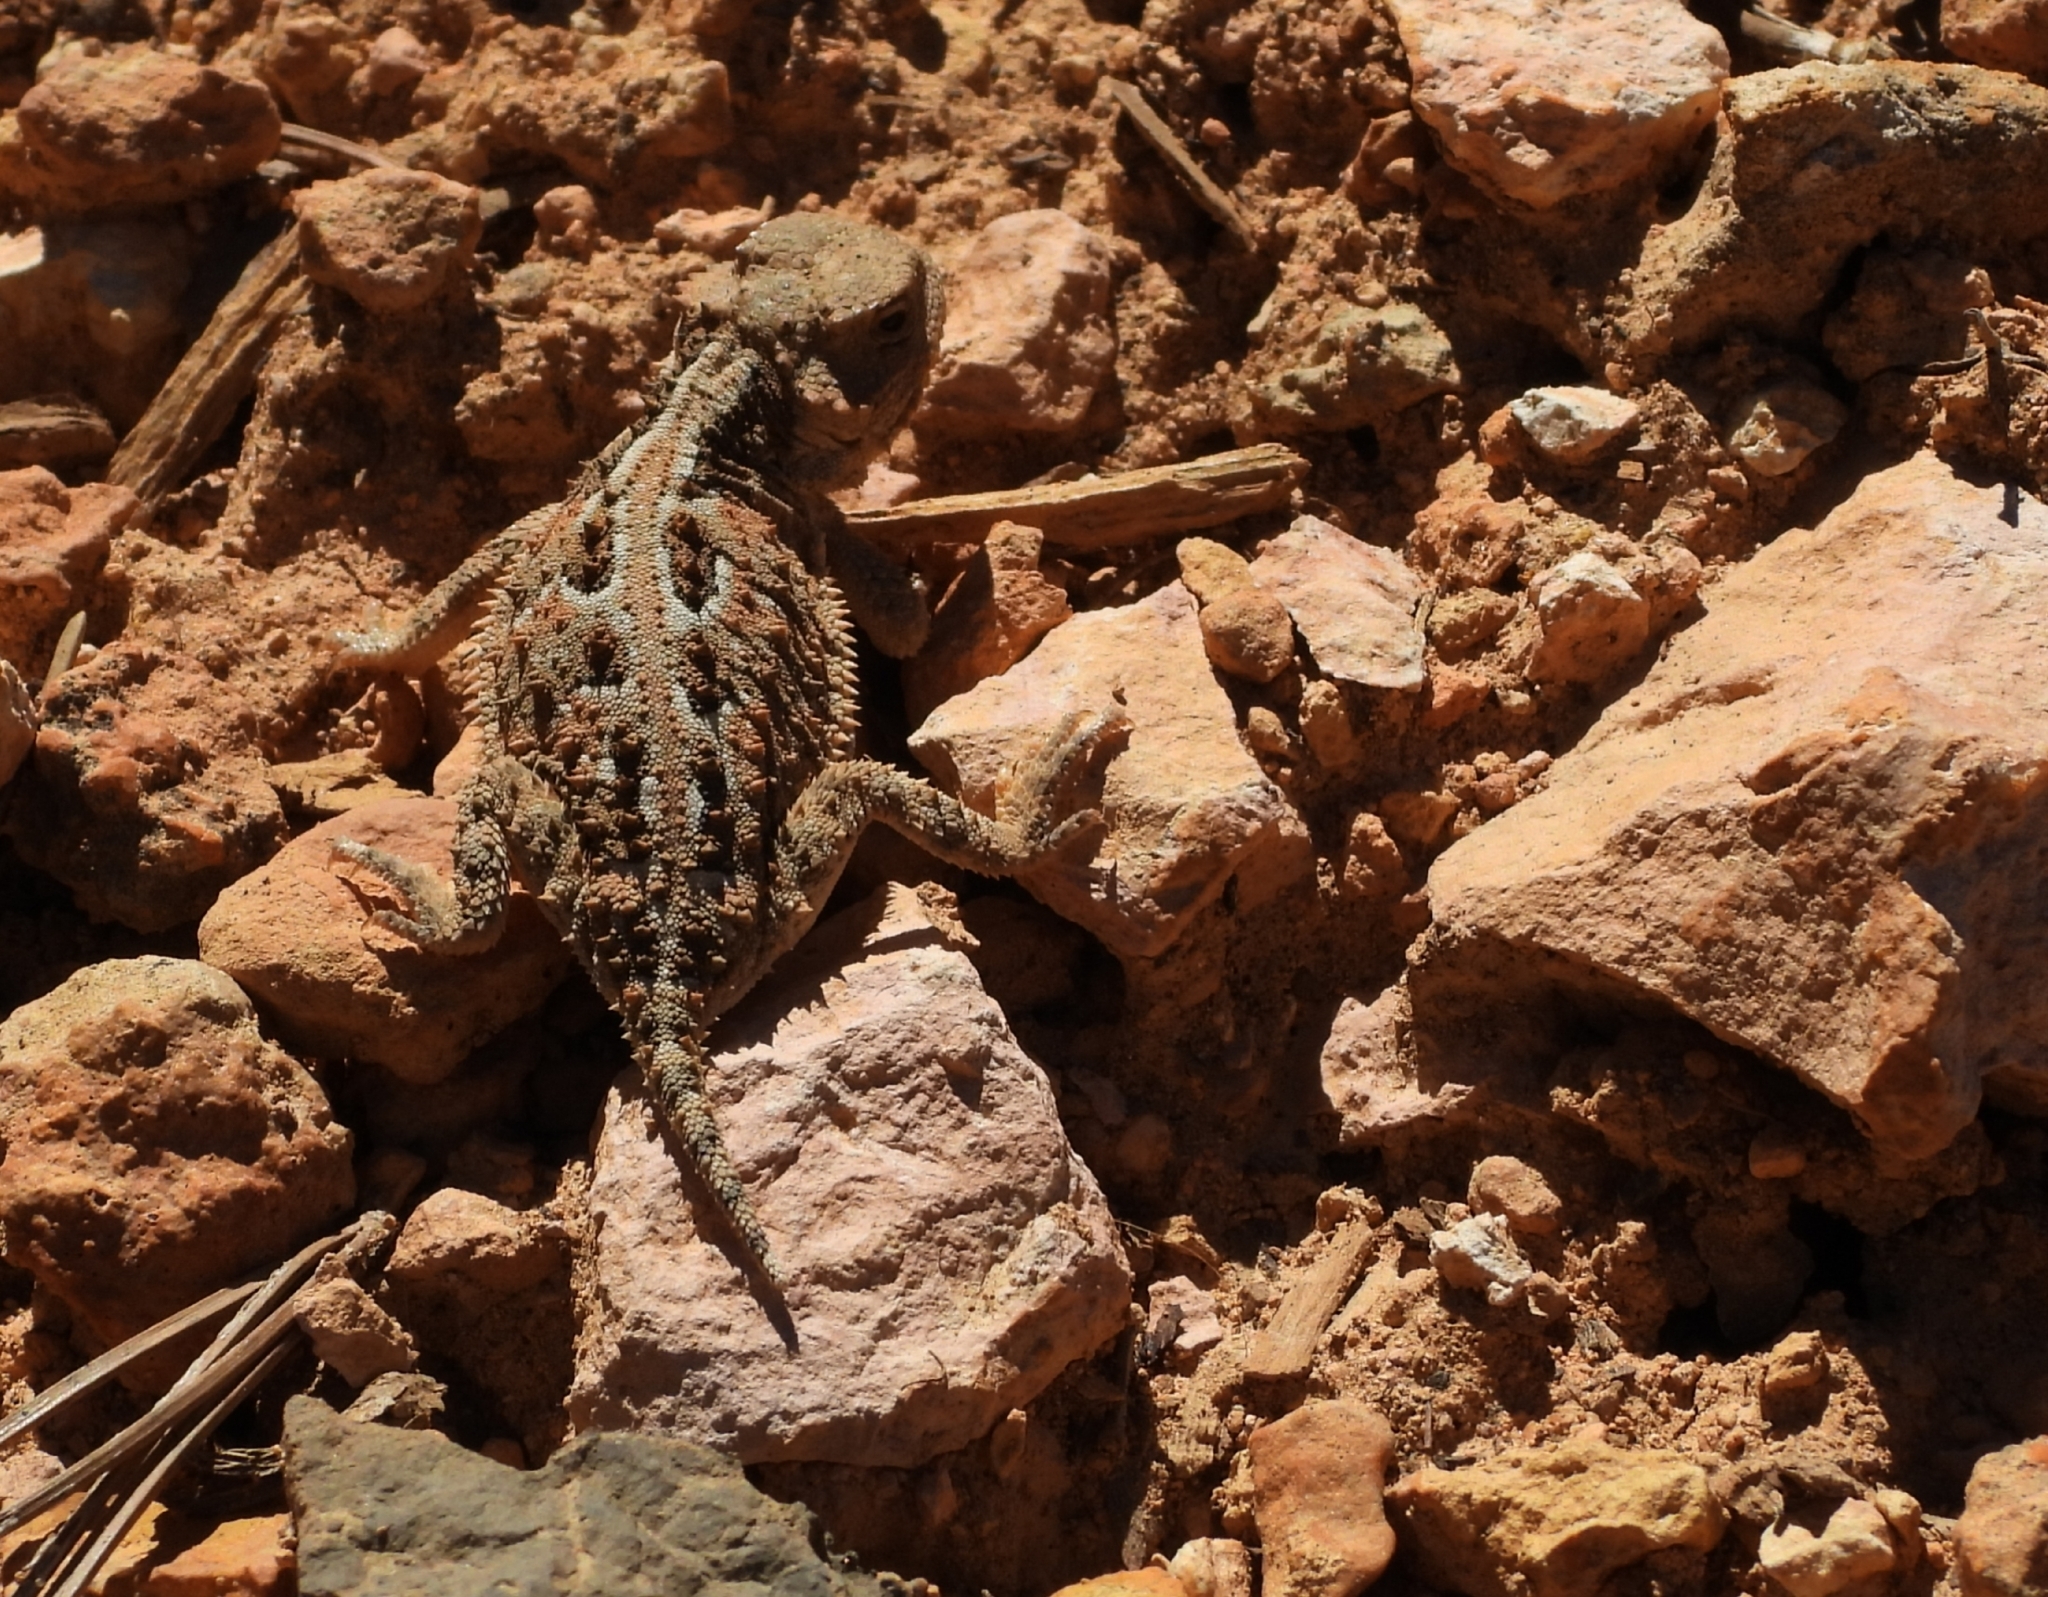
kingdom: Animalia
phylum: Chordata
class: Squamata
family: Phrynosomatidae
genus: Phrynosoma
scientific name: Phrynosoma hernandesi
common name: Greater short-horned lizard
